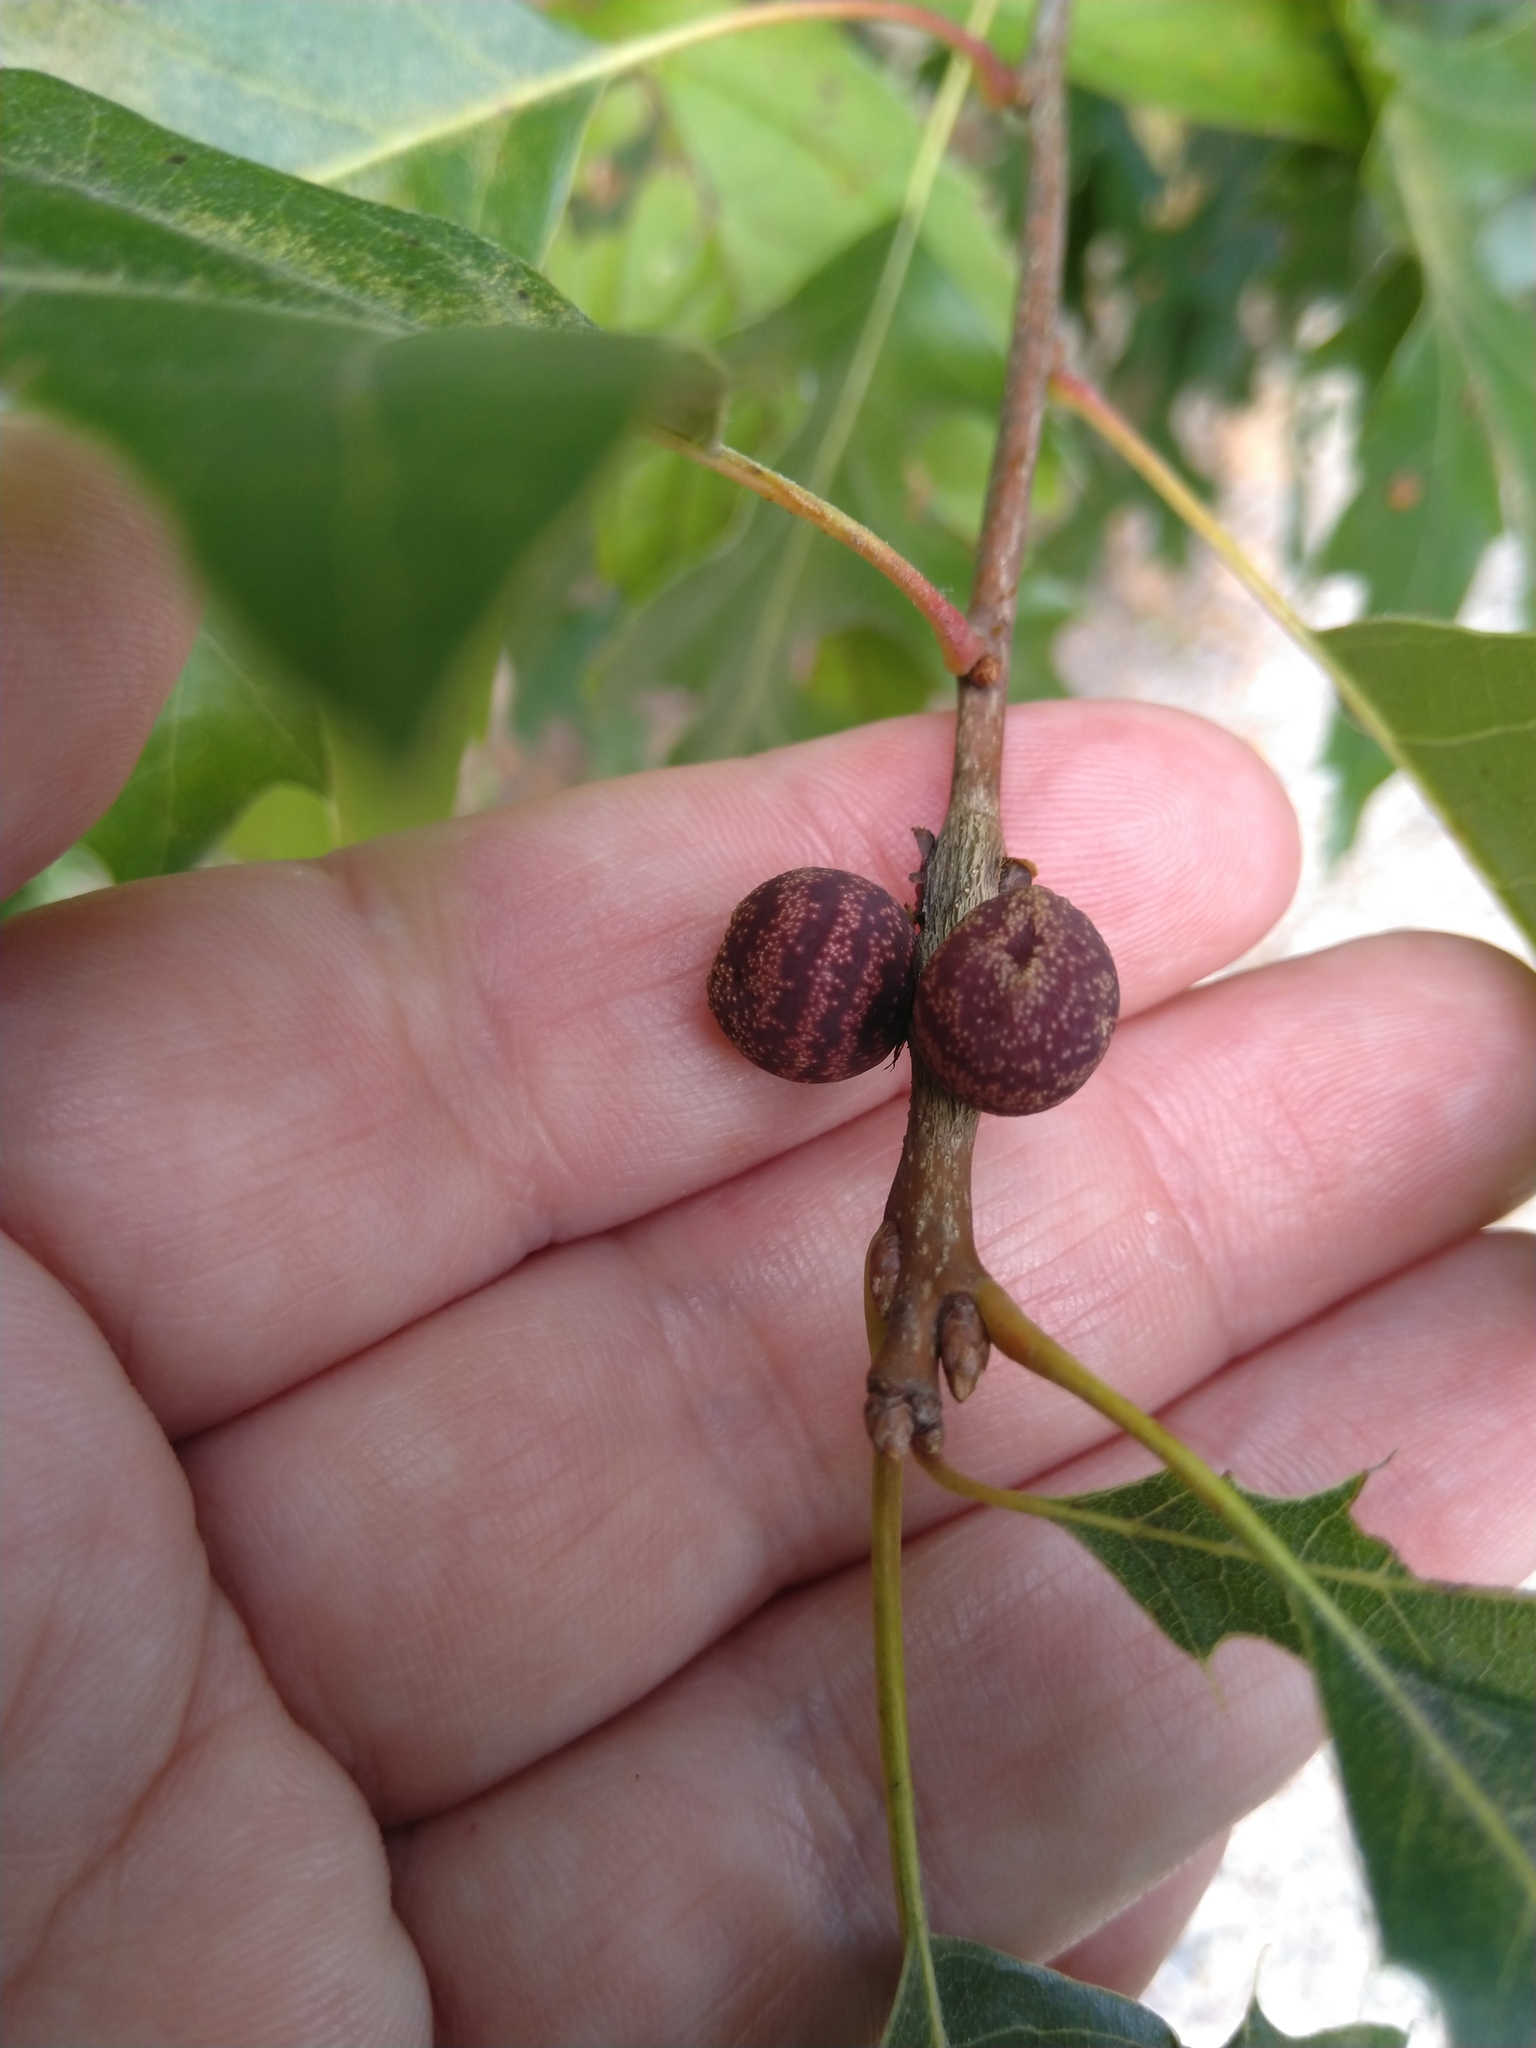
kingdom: Animalia
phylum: Arthropoda
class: Insecta
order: Hymenoptera
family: Cynipidae
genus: Kokkocynips
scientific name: Kokkocynips imbricariae
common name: Banded bullet gall wasp
